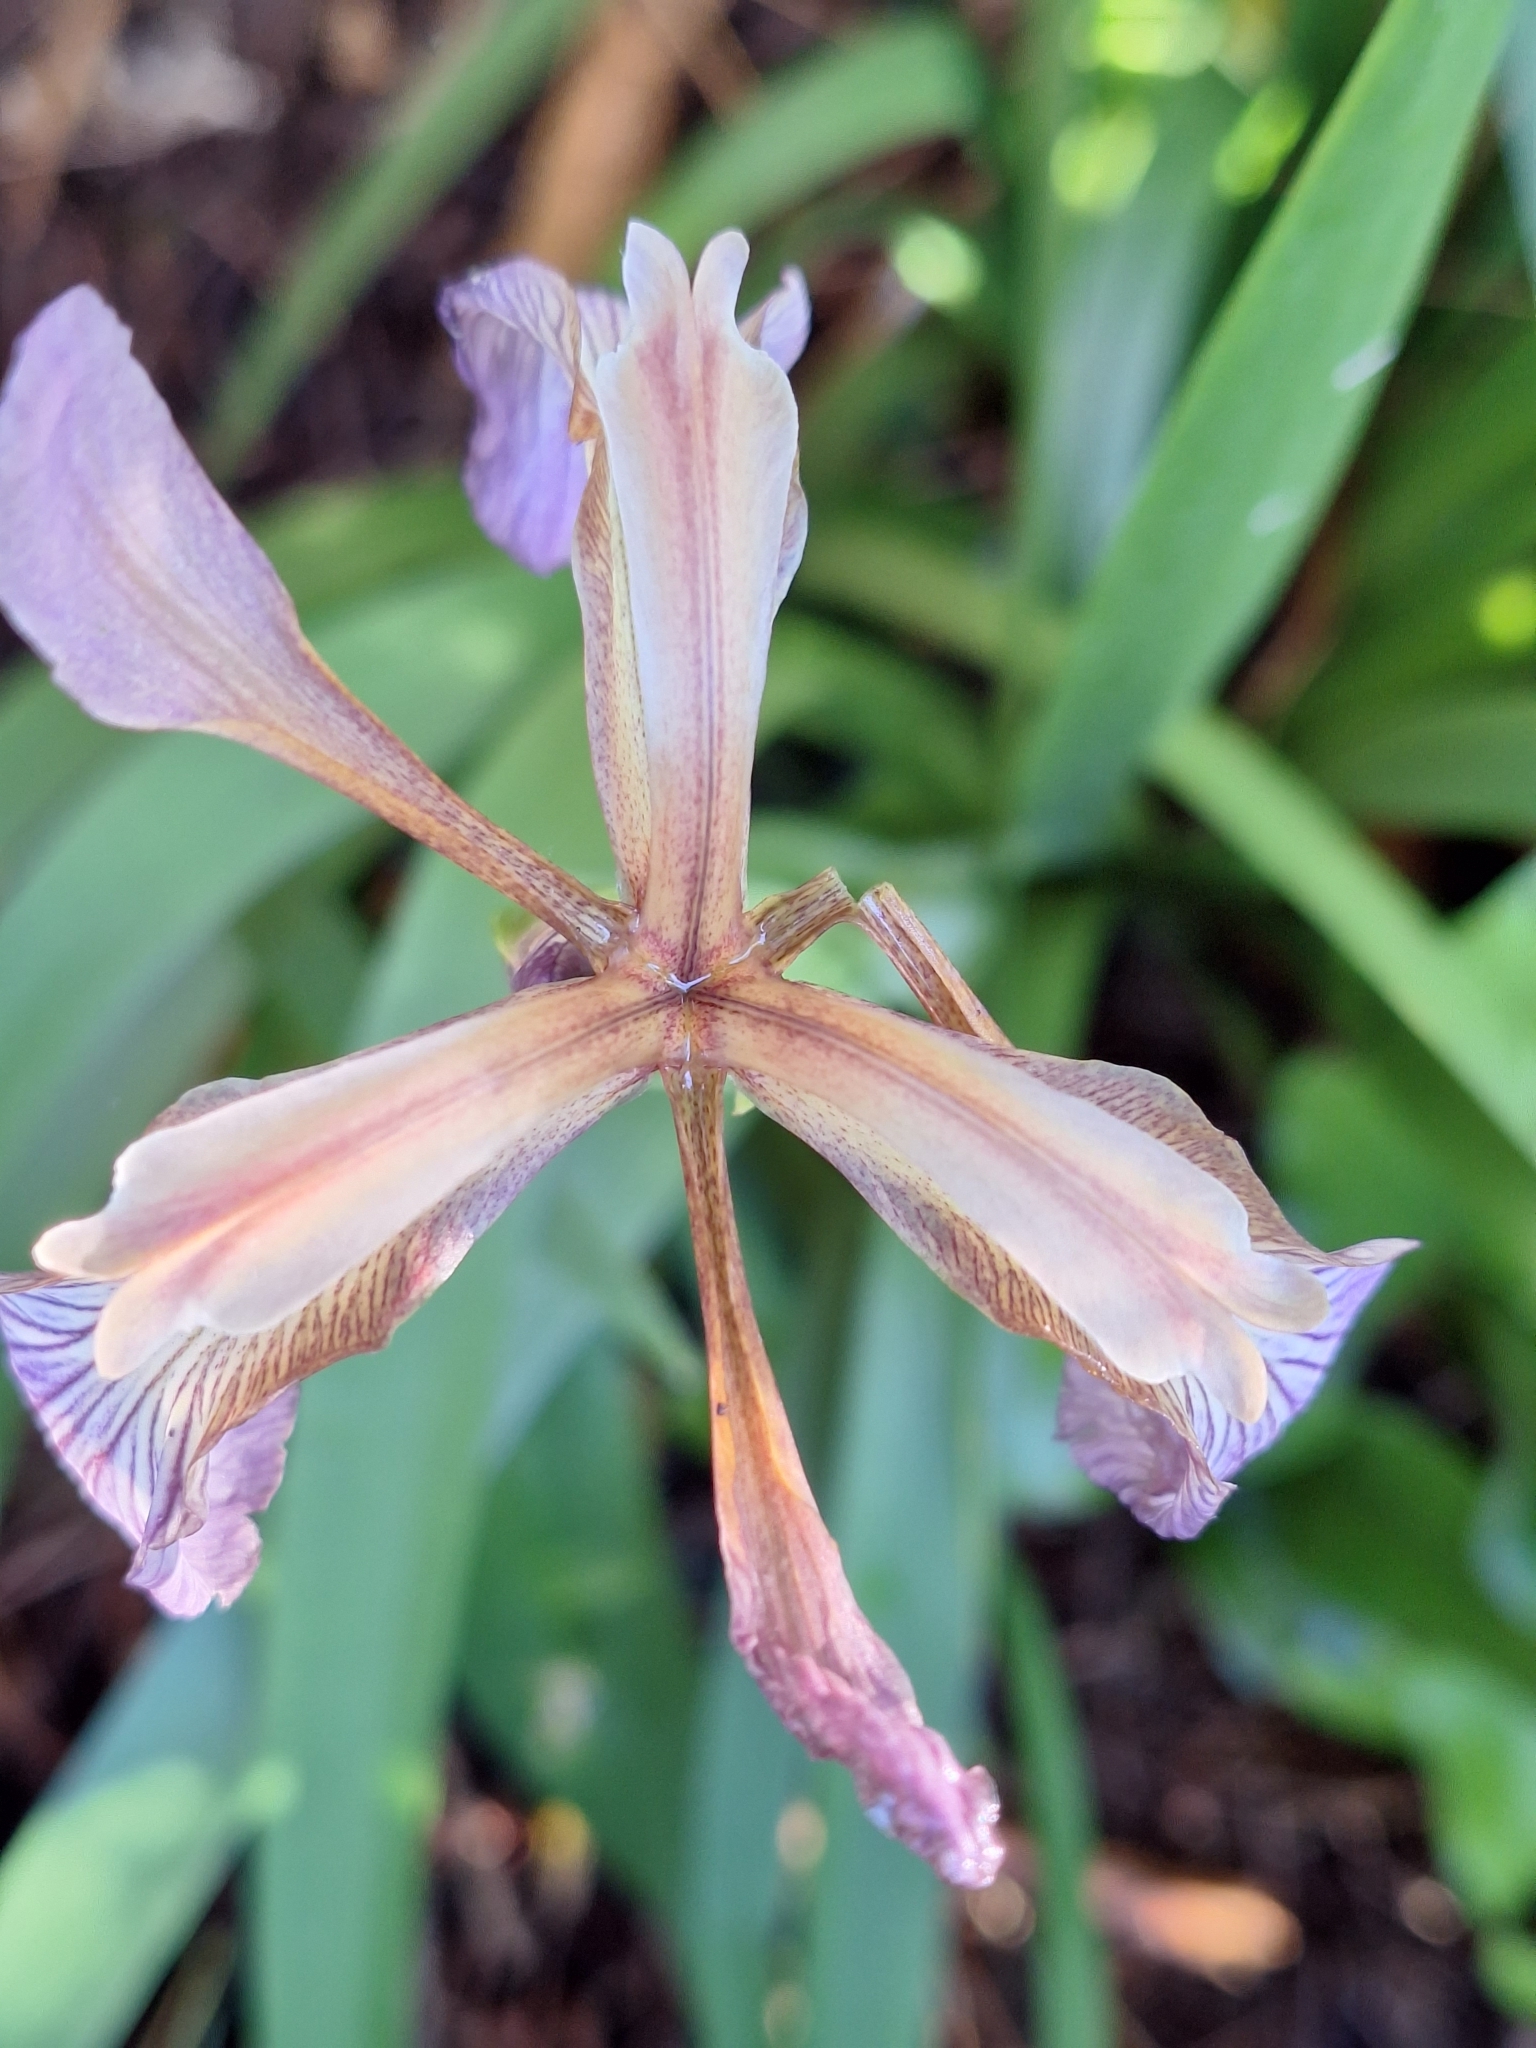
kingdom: Plantae
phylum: Tracheophyta
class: Liliopsida
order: Asparagales
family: Iridaceae
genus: Iris
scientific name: Iris foetidissima
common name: Stinking iris
